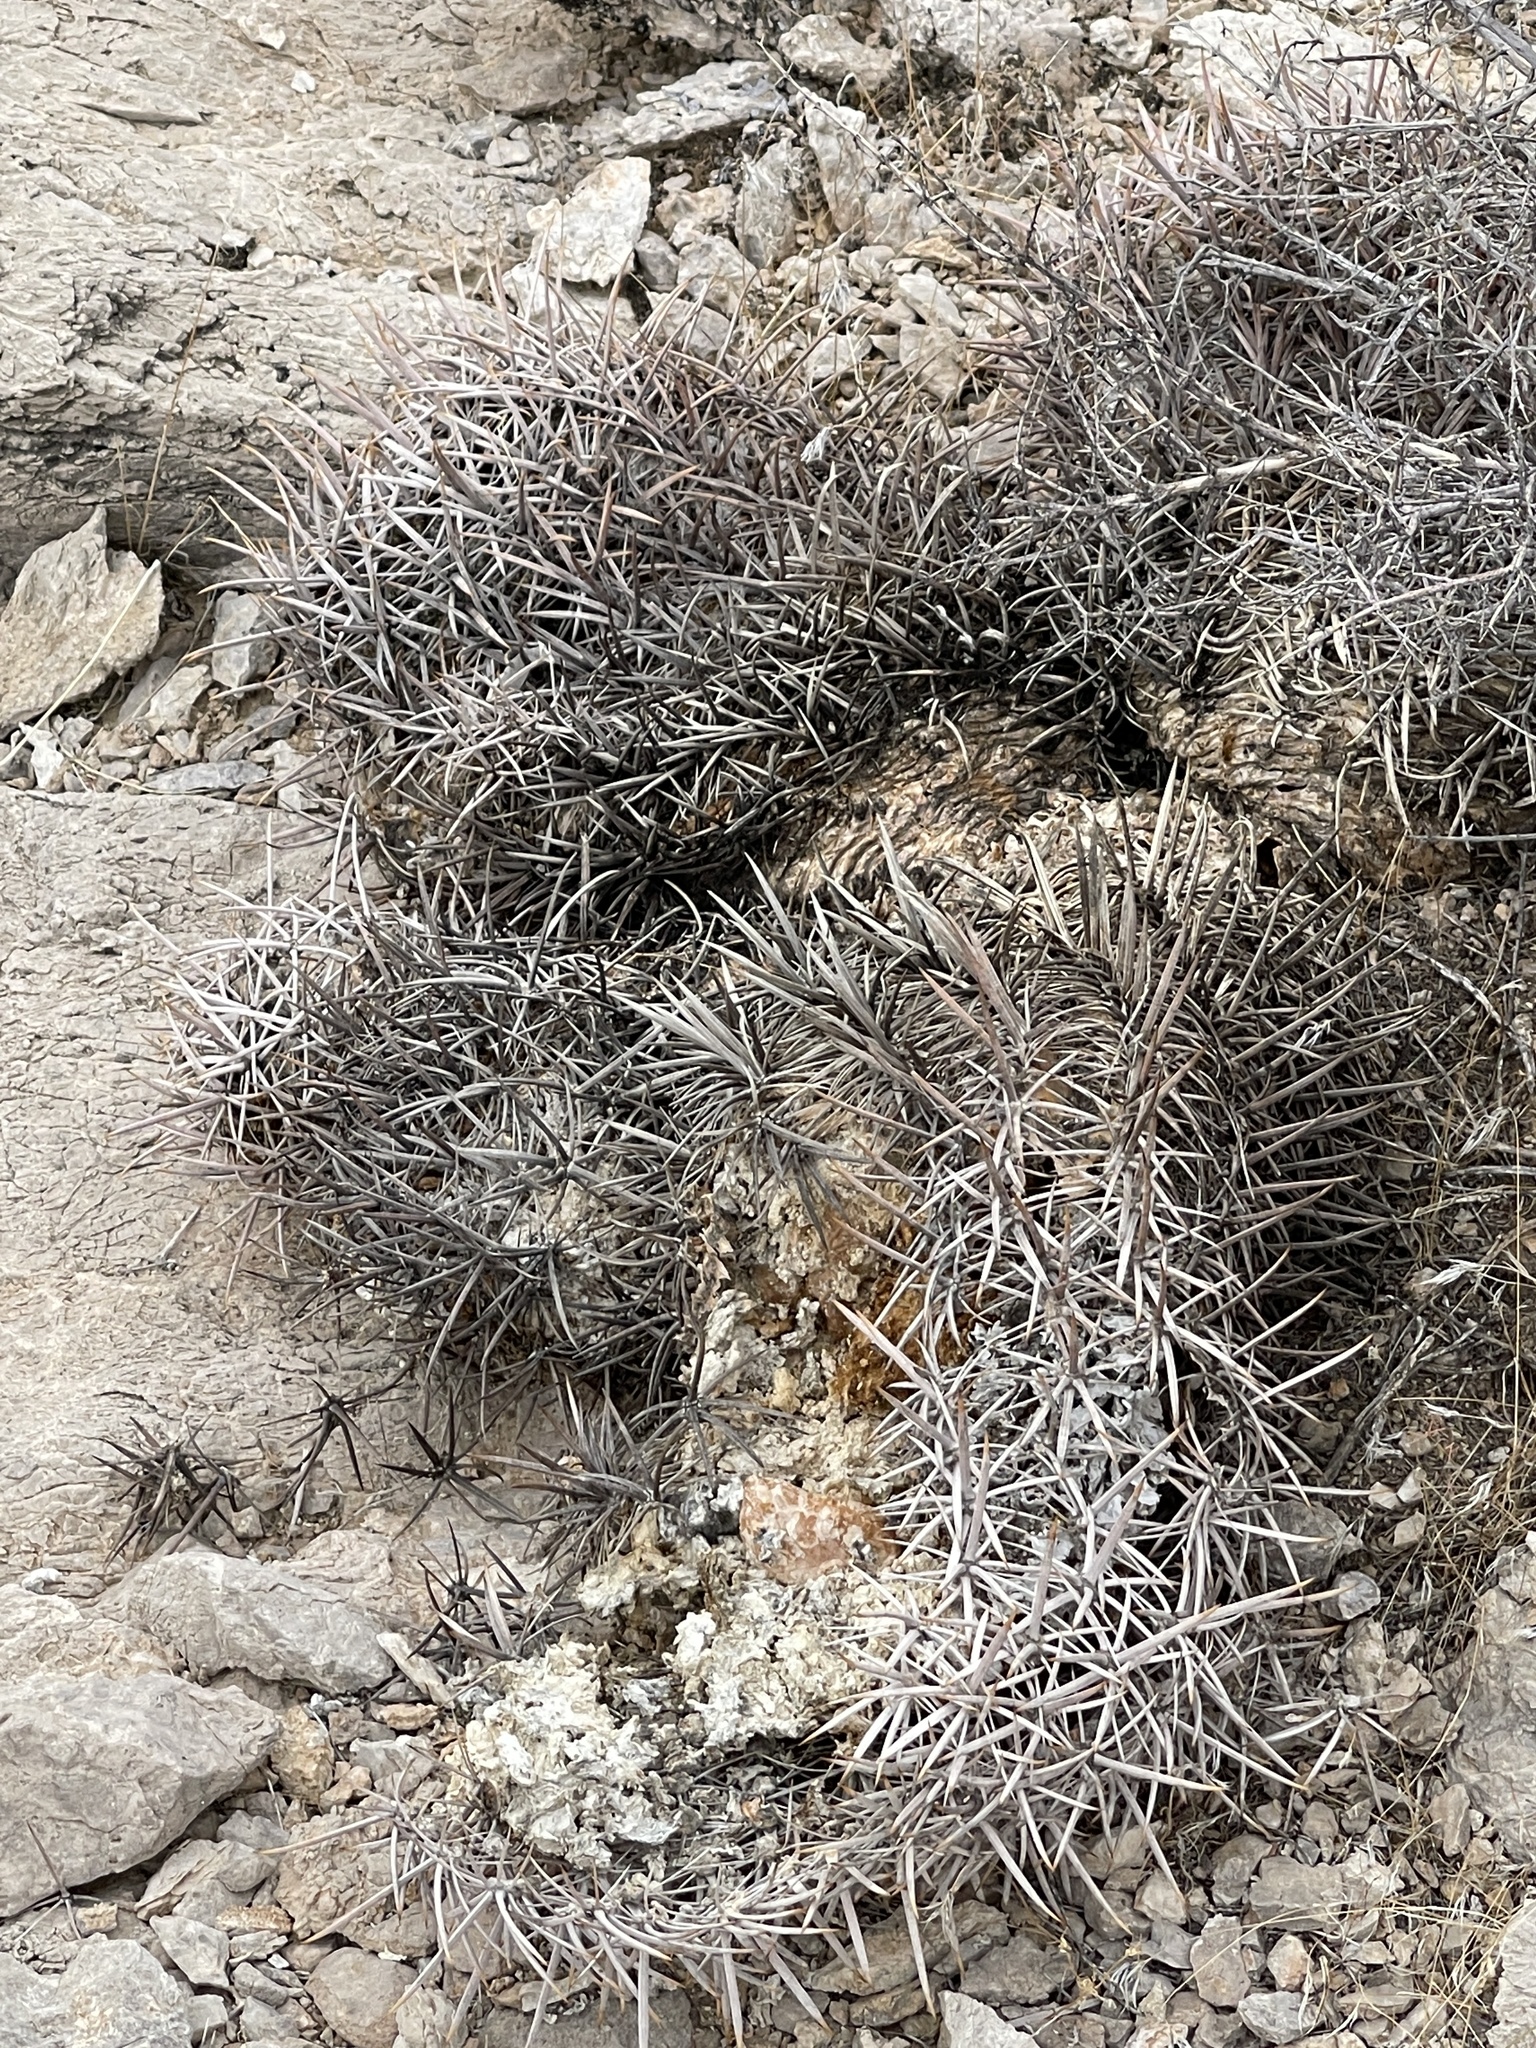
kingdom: Plantae
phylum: Tracheophyta
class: Magnoliopsida
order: Caryophyllales
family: Cactaceae
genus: Echinocactus
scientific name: Echinocactus polycephalus
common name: Cottontop cactus
